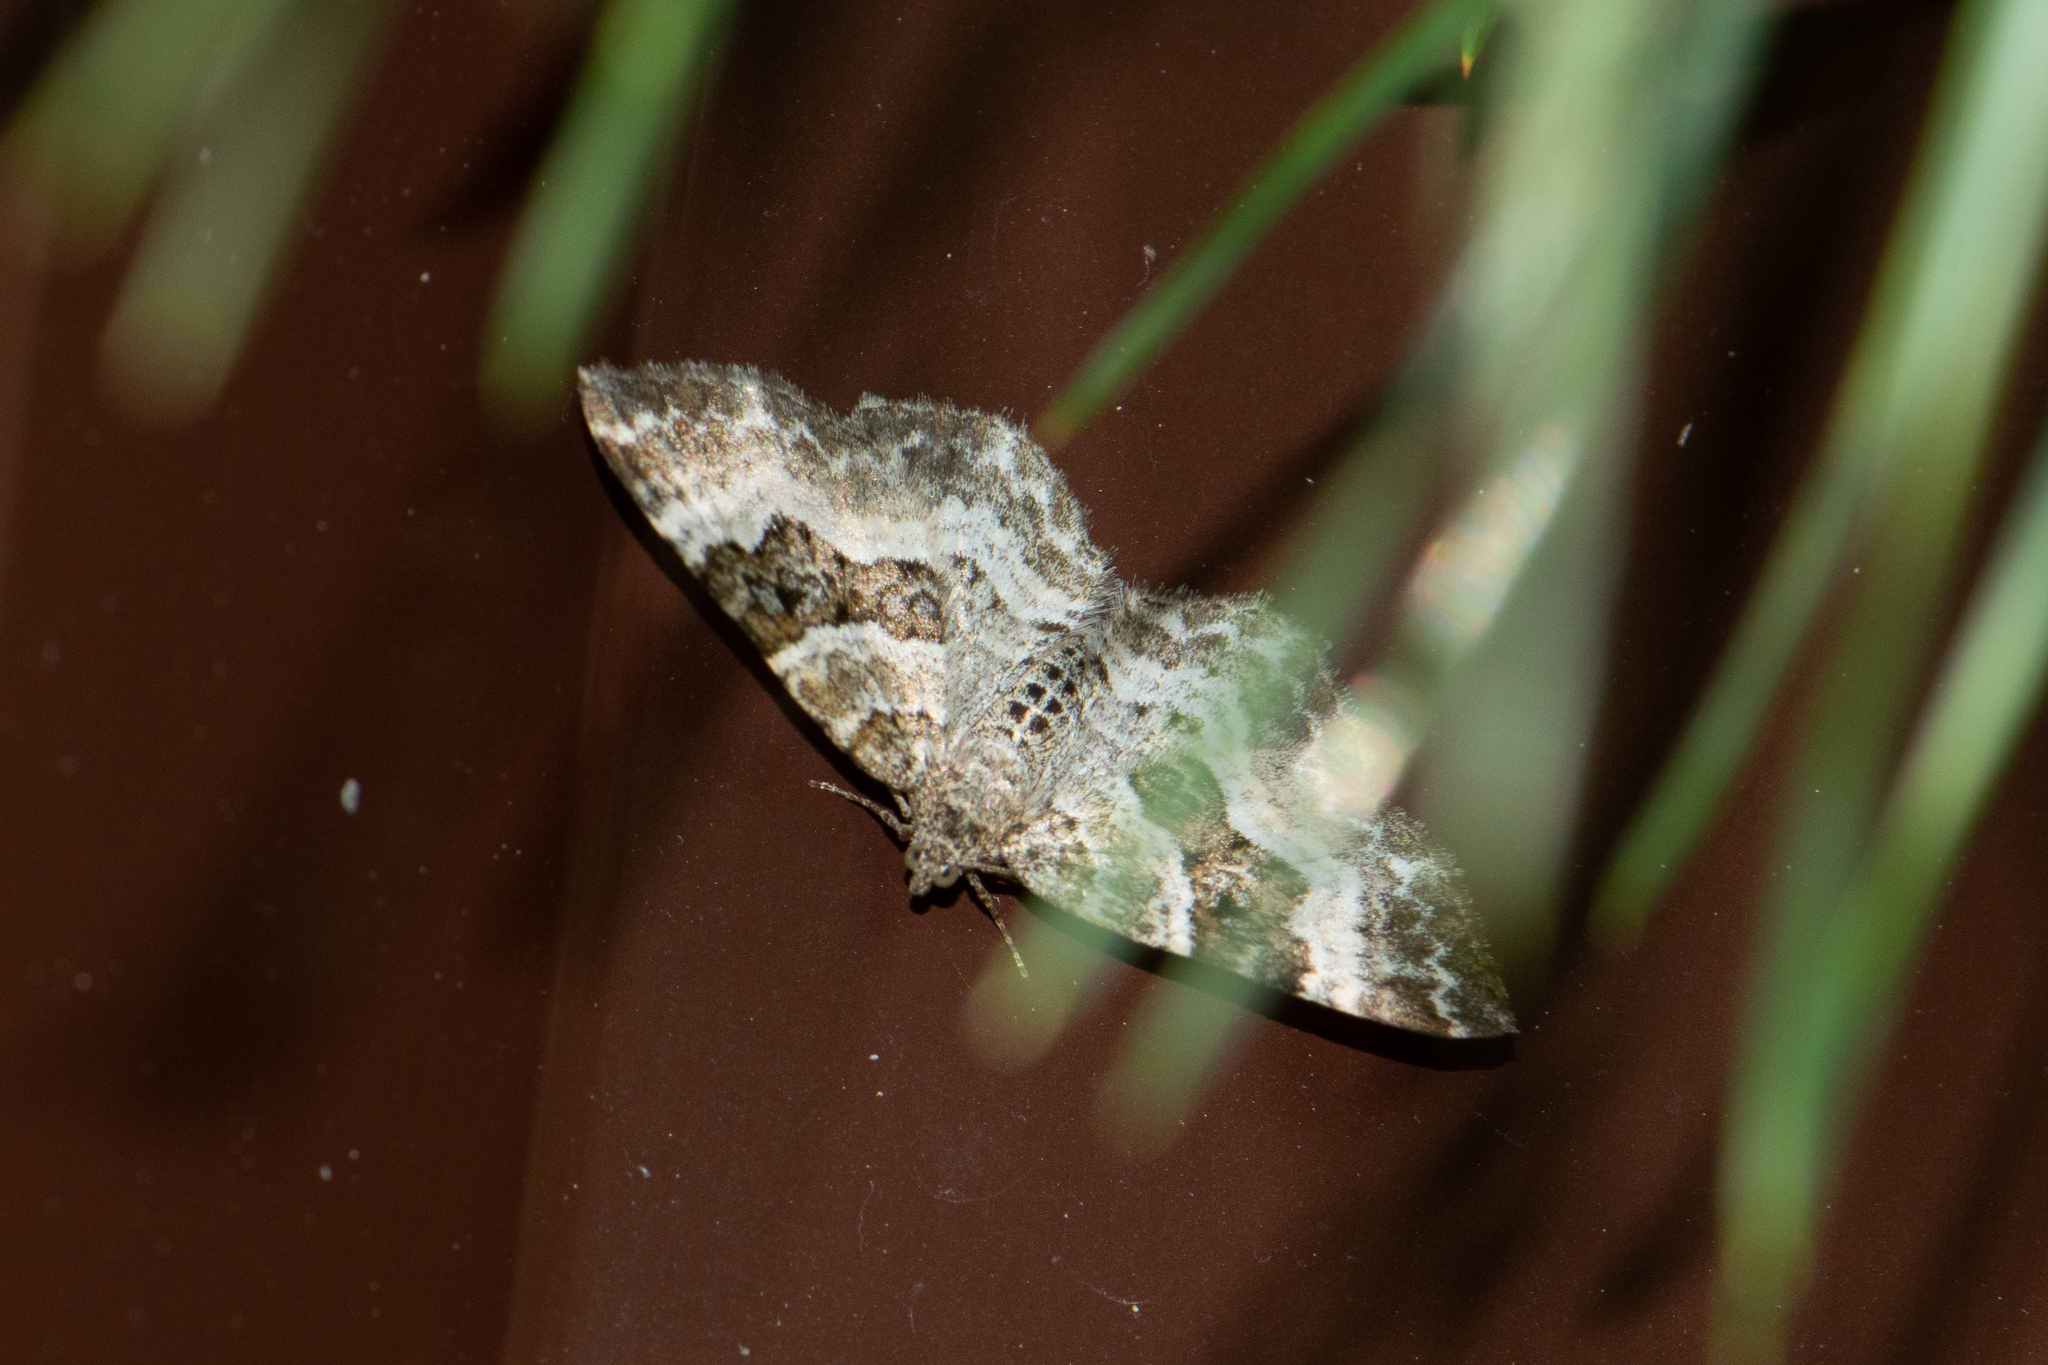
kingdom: Animalia
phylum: Arthropoda
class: Insecta
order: Lepidoptera
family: Geometridae
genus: Epirrhoe
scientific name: Epirrhoe alternata
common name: Common carpet
